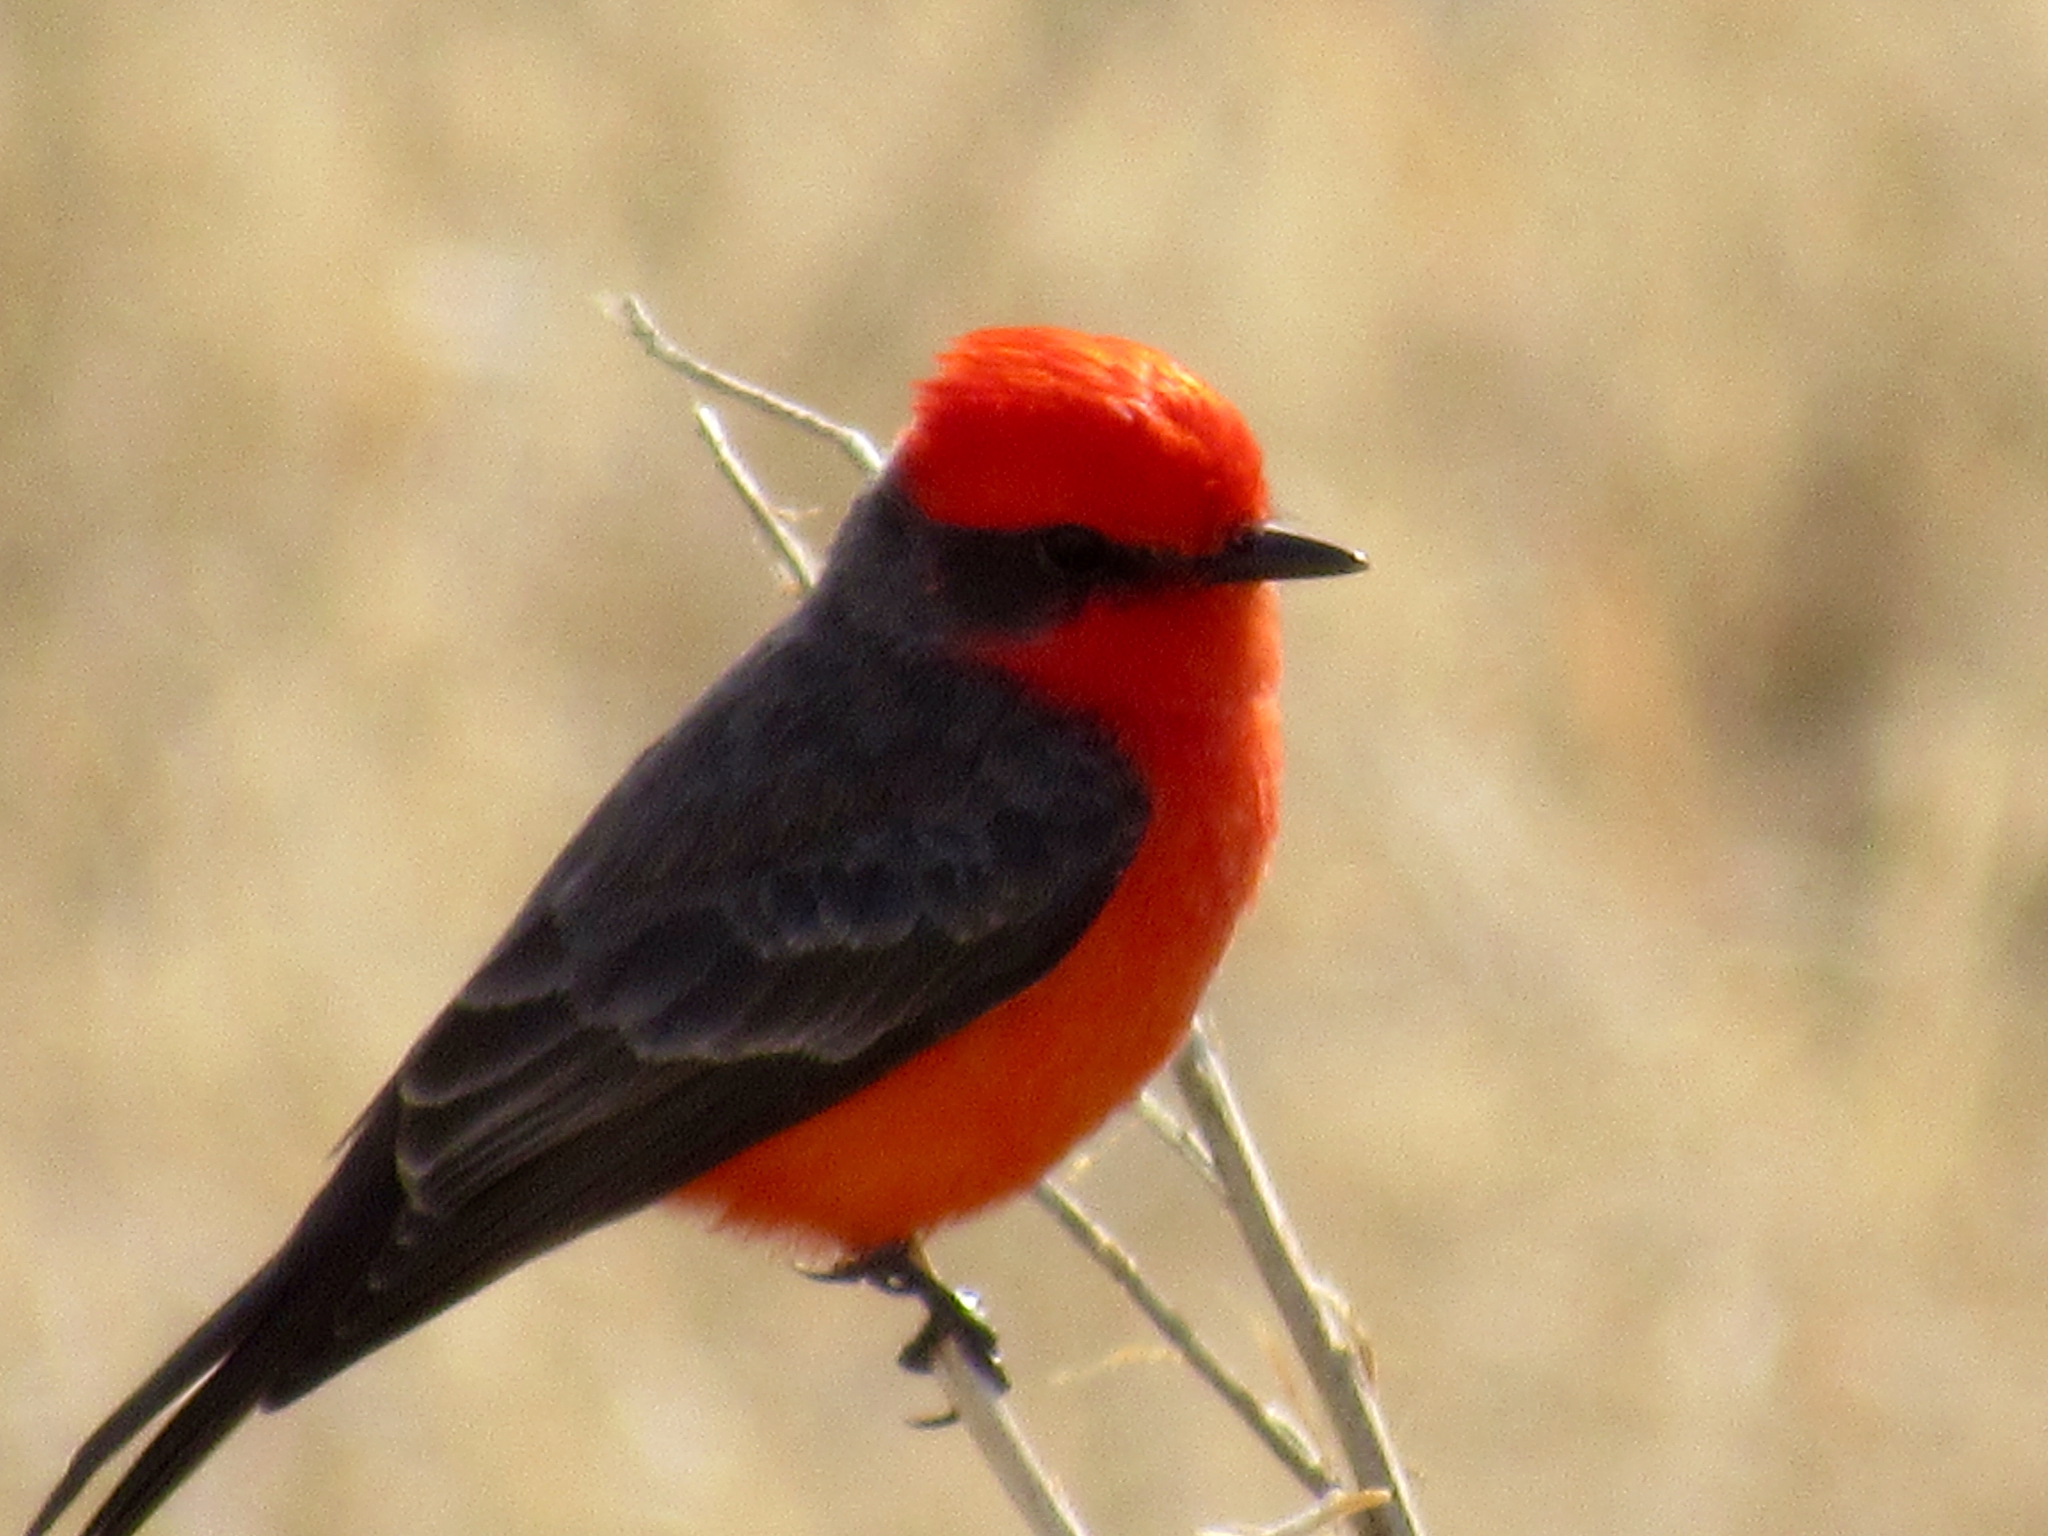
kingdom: Animalia
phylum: Chordata
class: Aves
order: Passeriformes
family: Tyrannidae
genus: Pyrocephalus
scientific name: Pyrocephalus rubinus
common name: Vermilion flycatcher
